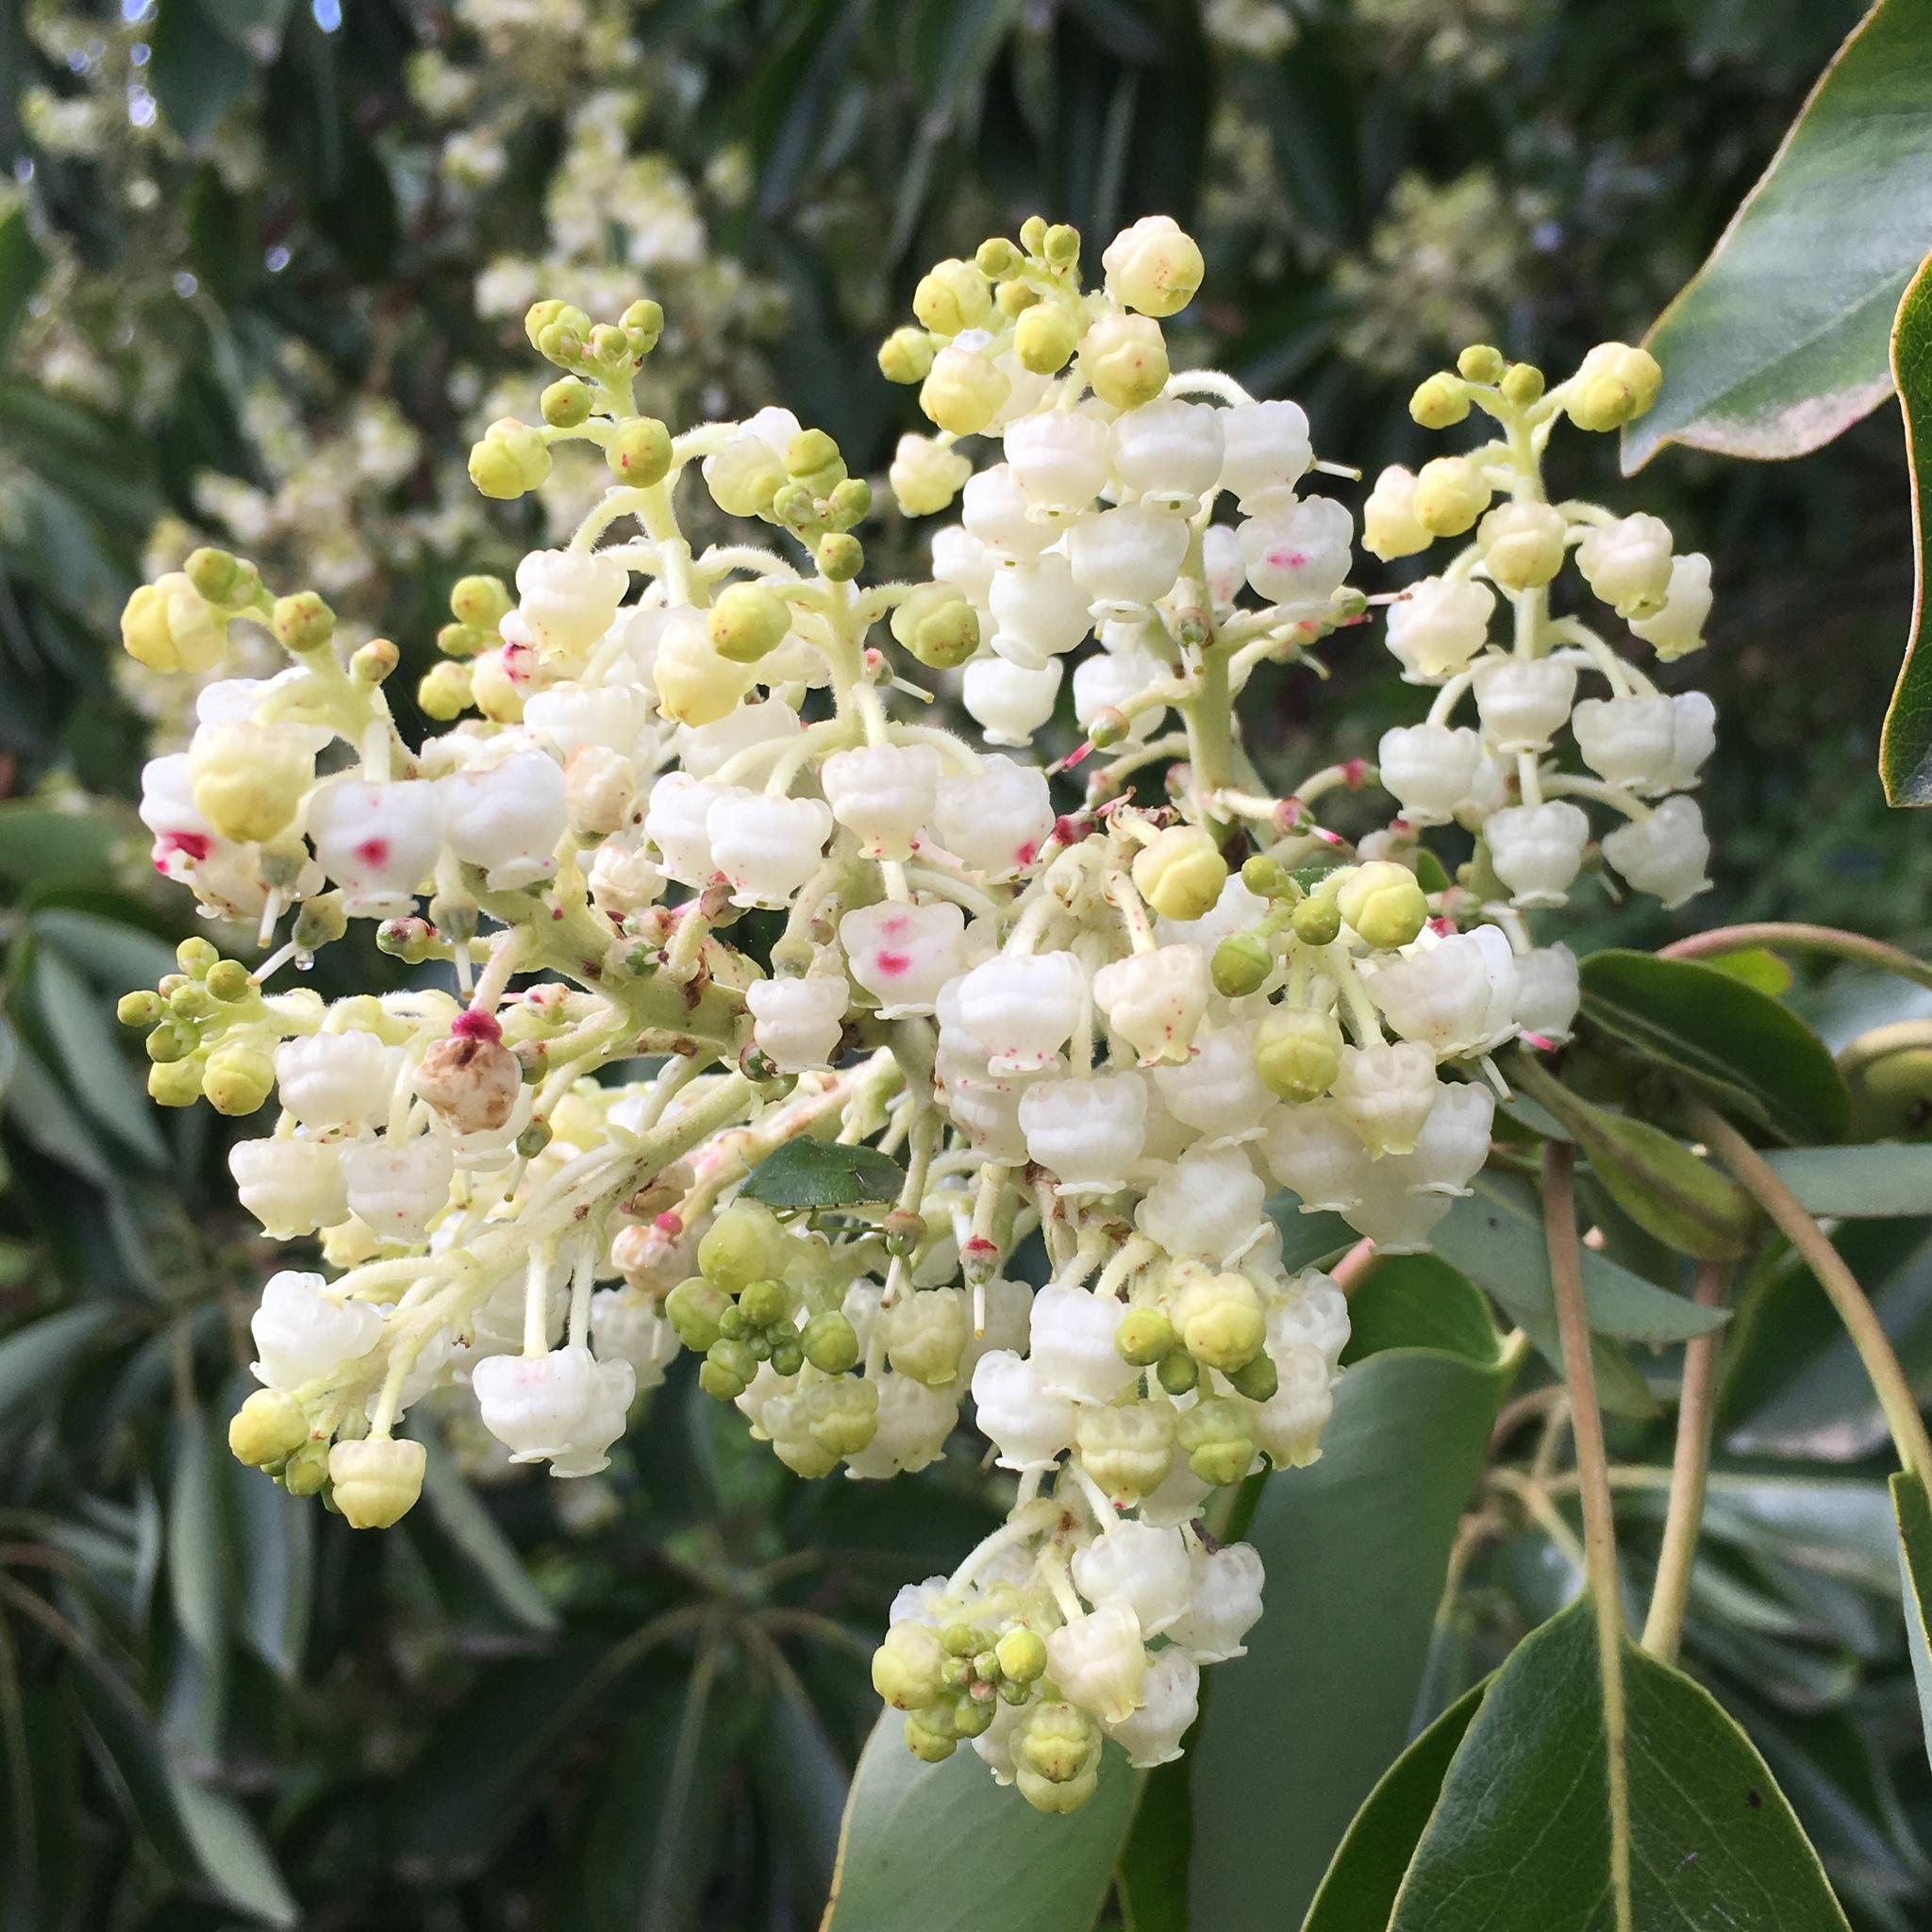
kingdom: Plantae
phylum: Tracheophyta
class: Magnoliopsida
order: Ericales
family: Ericaceae
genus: Arbutus
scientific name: Arbutus menziesii
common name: Pacific madrone
